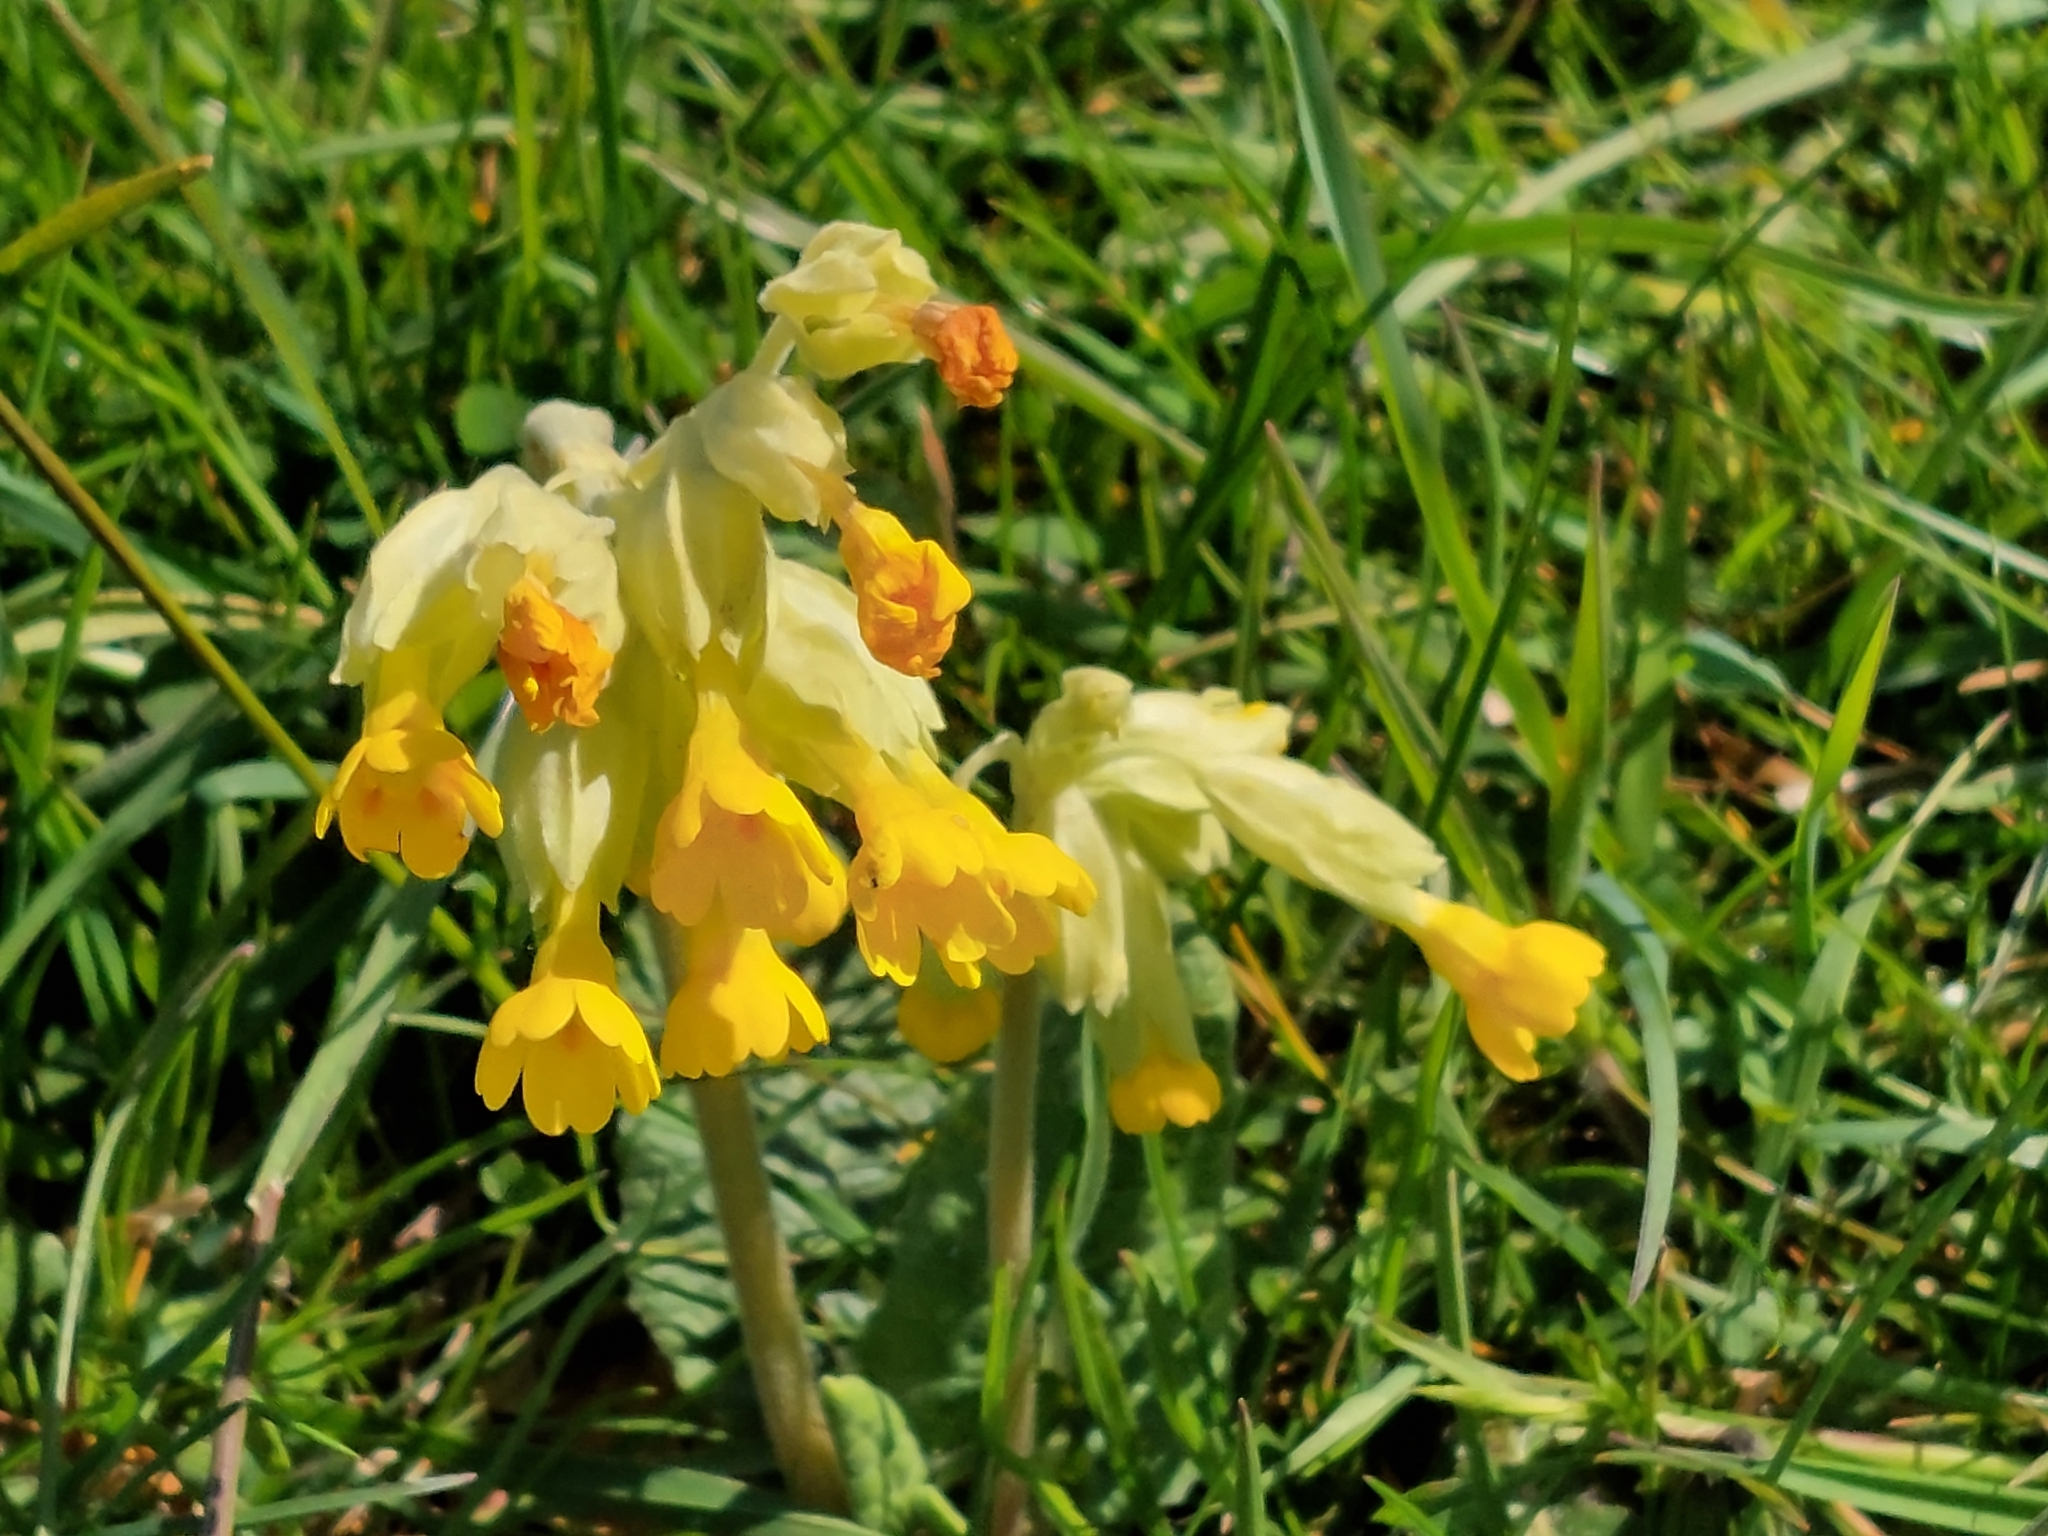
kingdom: Plantae
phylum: Tracheophyta
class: Magnoliopsida
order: Ericales
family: Primulaceae
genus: Primula
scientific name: Primula veris
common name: Cowslip
